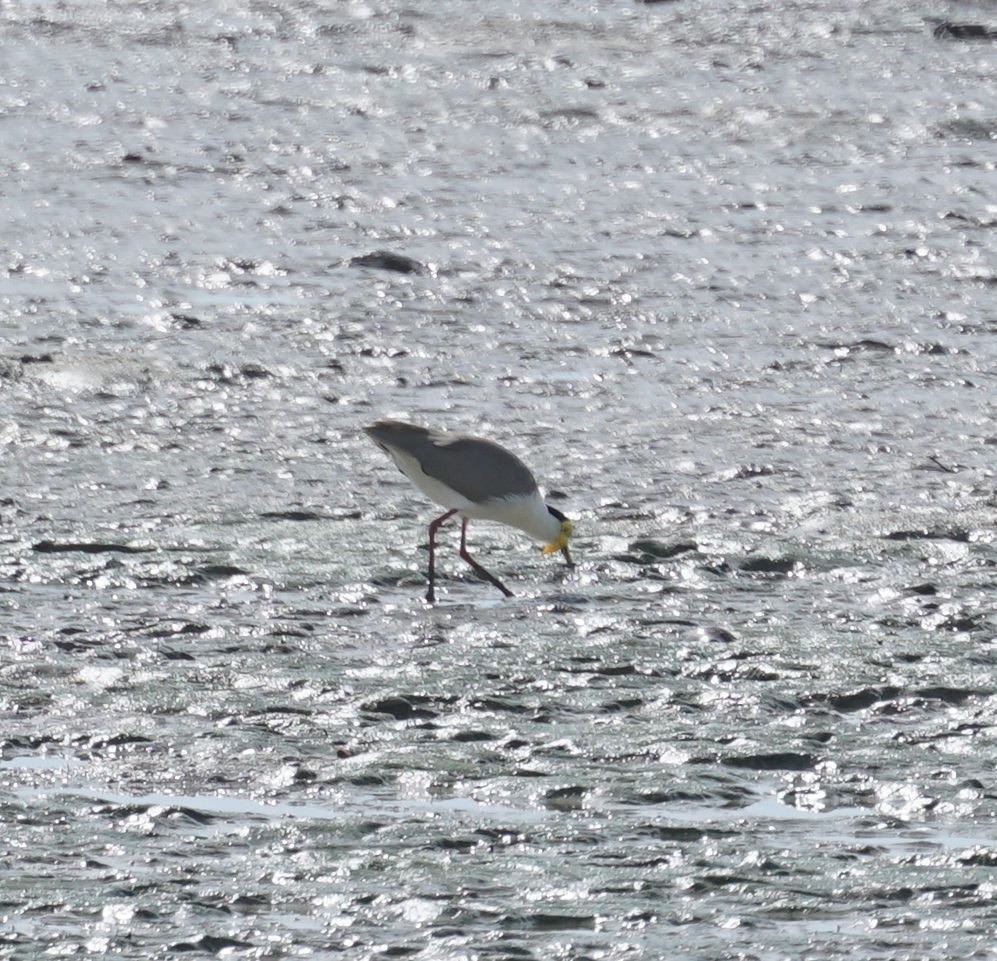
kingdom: Animalia
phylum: Chordata
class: Aves
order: Charadriiformes
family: Charadriidae
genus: Vanellus
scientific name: Vanellus miles
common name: Masked lapwing
